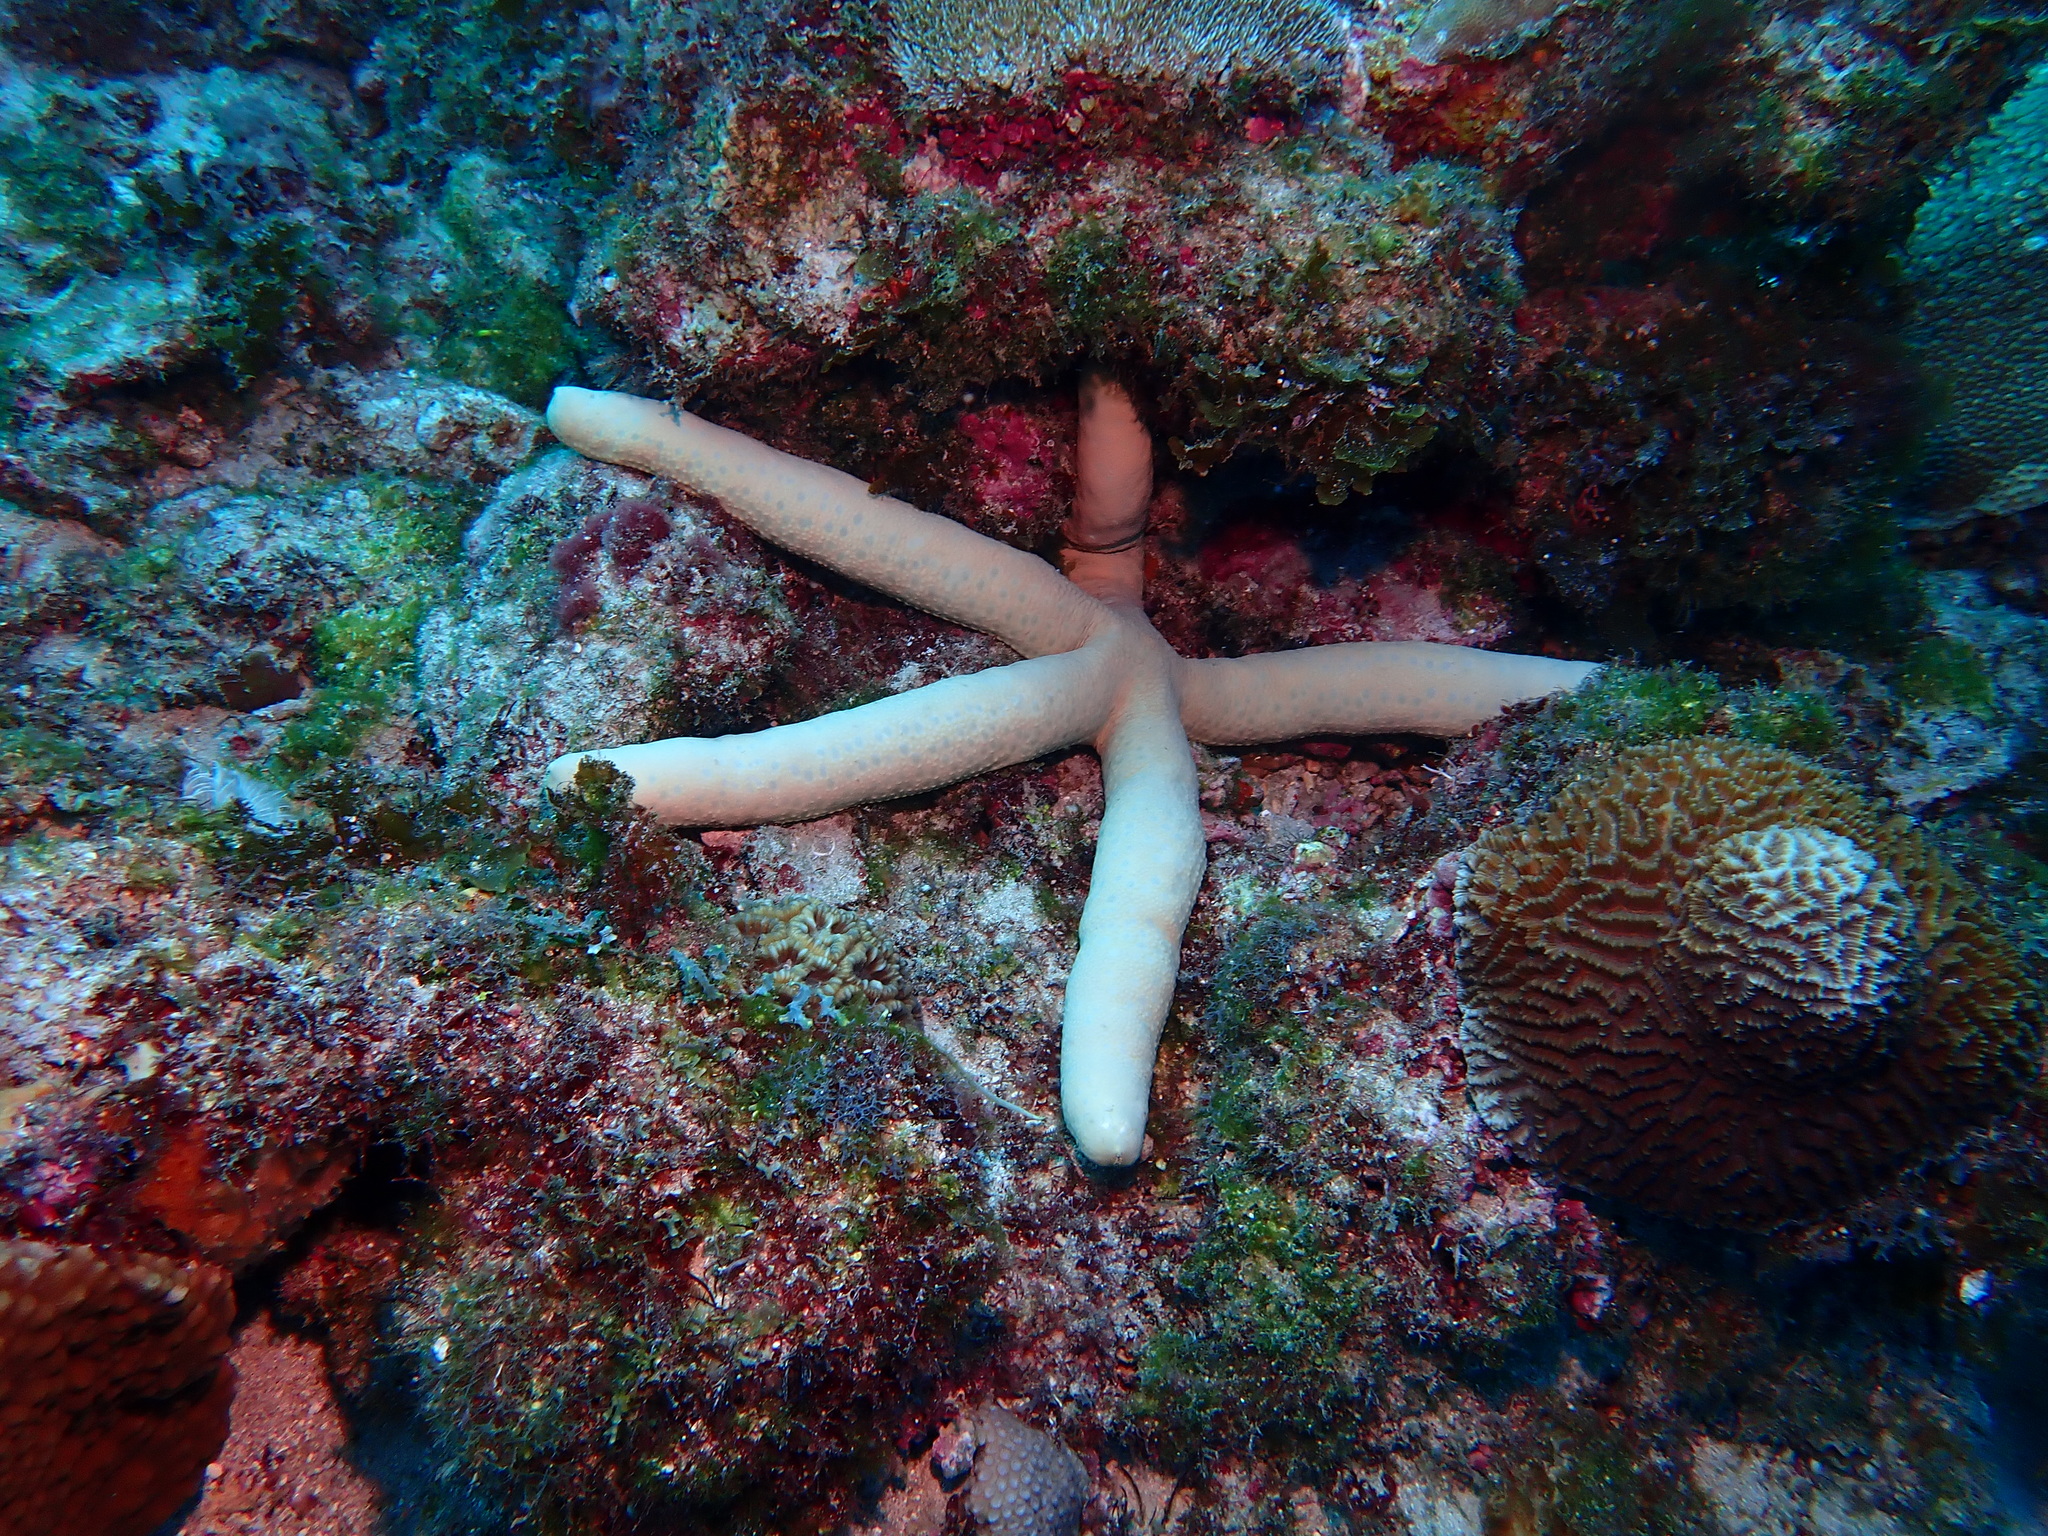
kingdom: Animalia
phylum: Echinodermata
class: Asteroidea
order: Valvatida
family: Ophidiasteridae
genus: Linckia
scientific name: Linckia laevigata
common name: Azure sea star
